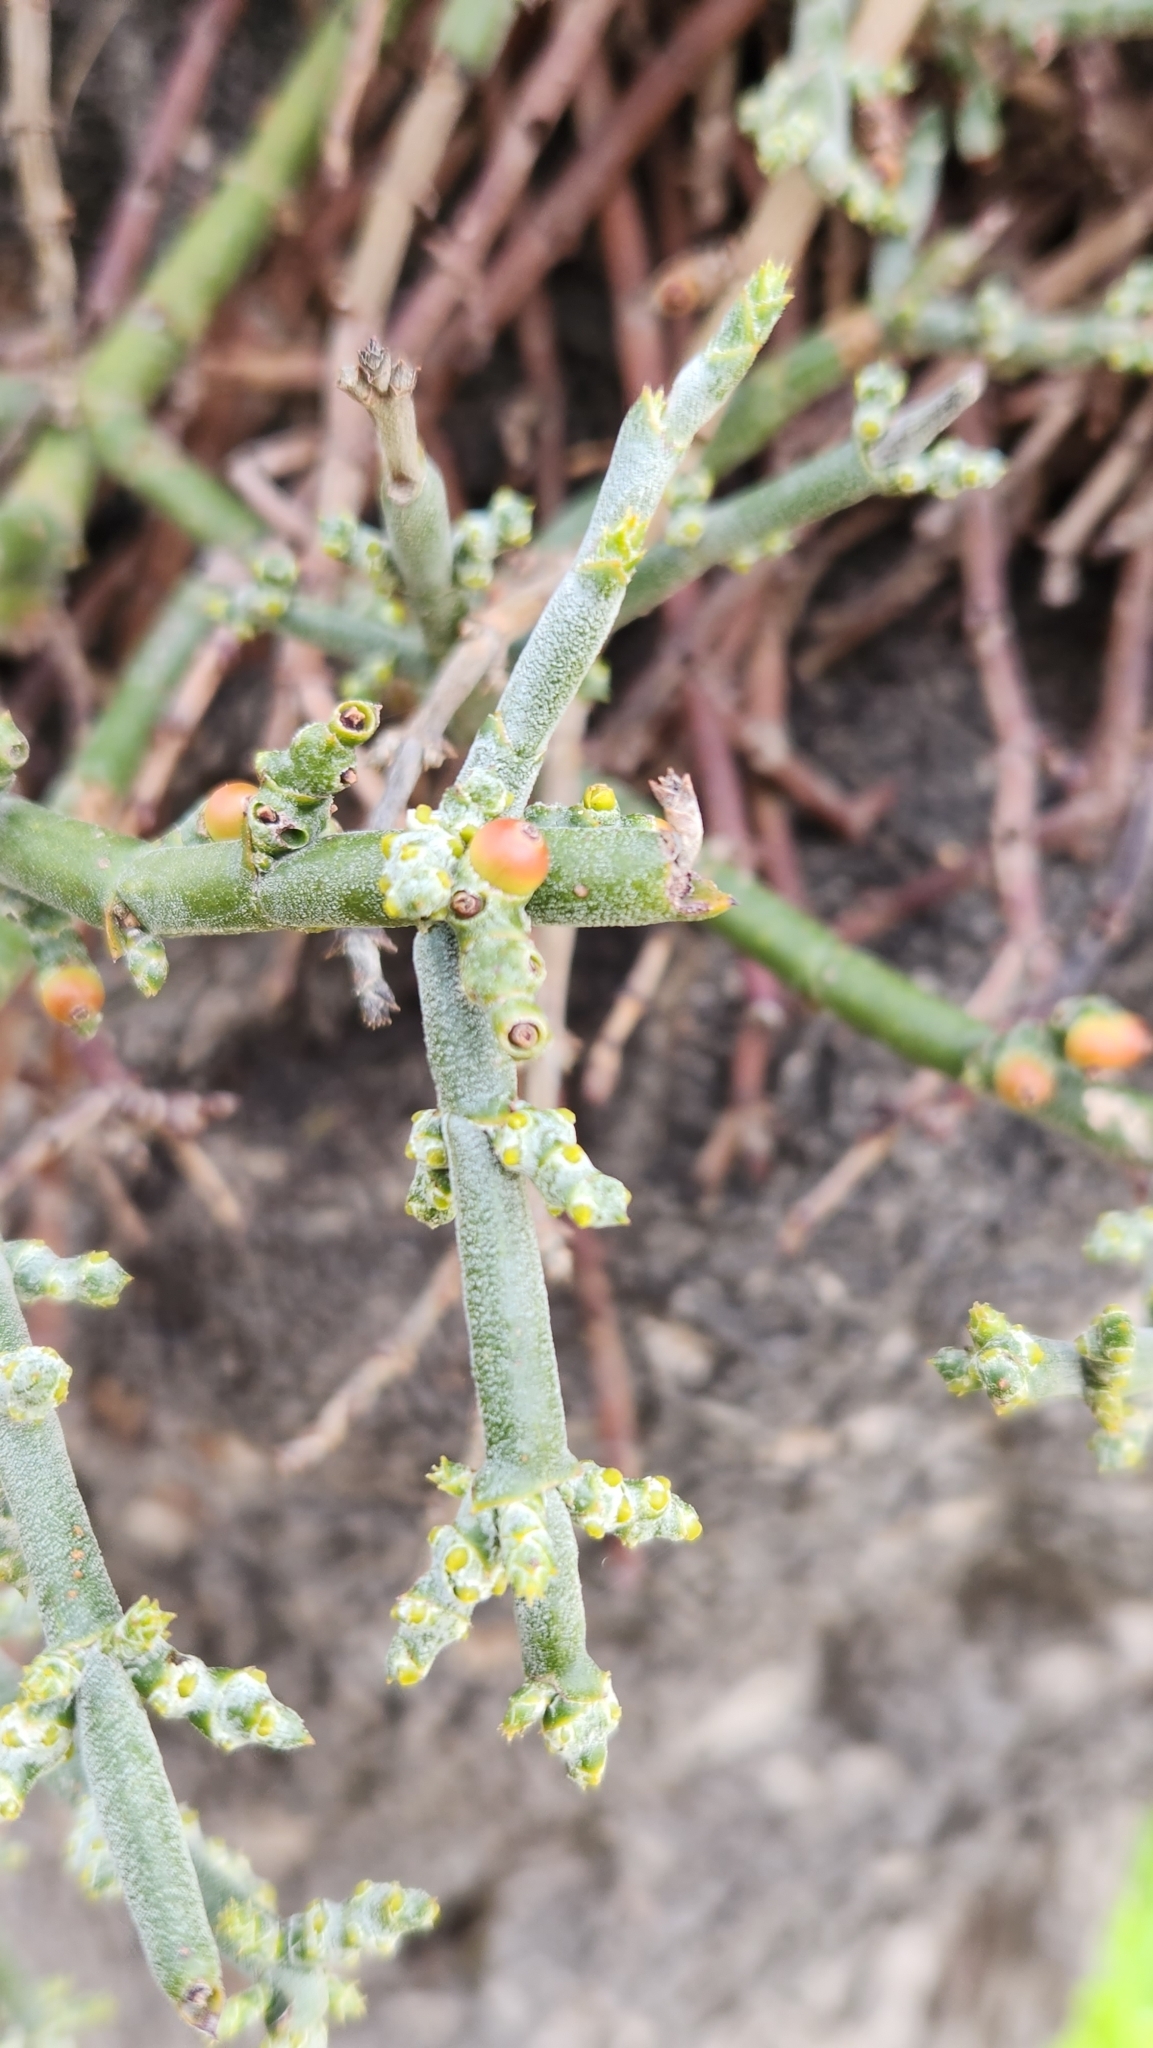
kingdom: Plantae
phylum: Tracheophyta
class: Magnoliopsida
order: Santalales
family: Viscaceae
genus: Phoradendron
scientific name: Phoradendron californicum
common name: Acacia mistletoe
